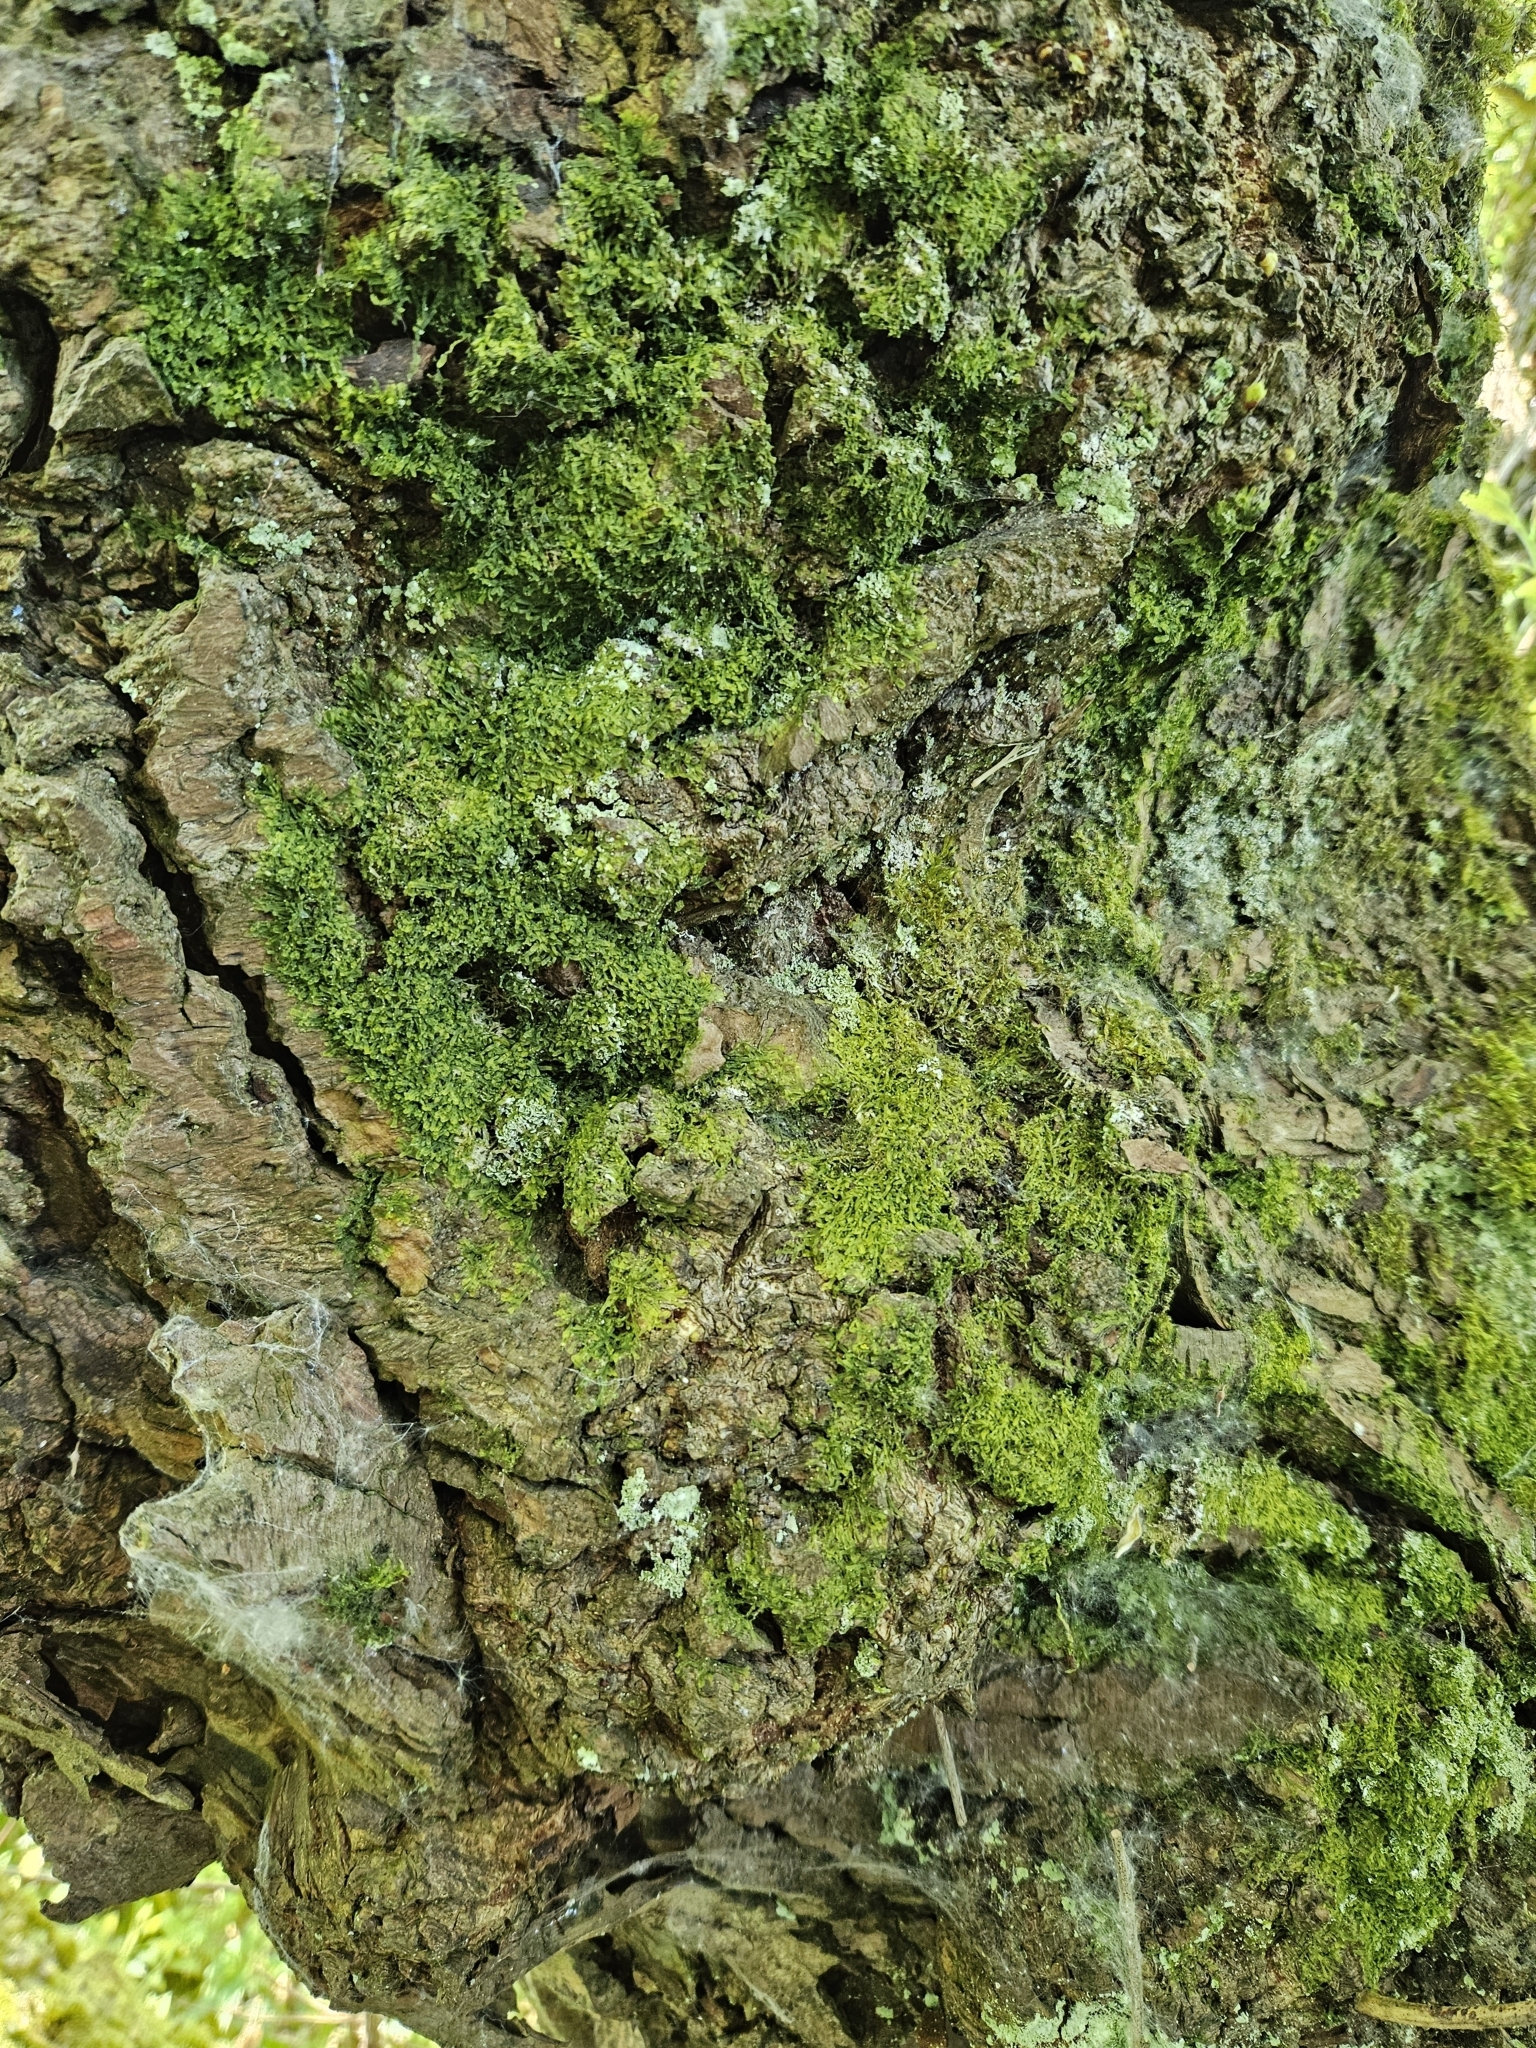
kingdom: Plantae
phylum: Marchantiophyta
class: Jungermanniopsida
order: Metzgeriales
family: Metzgeriaceae
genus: Metzgeria
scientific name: Metzgeria furcata
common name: Forked veilwort
